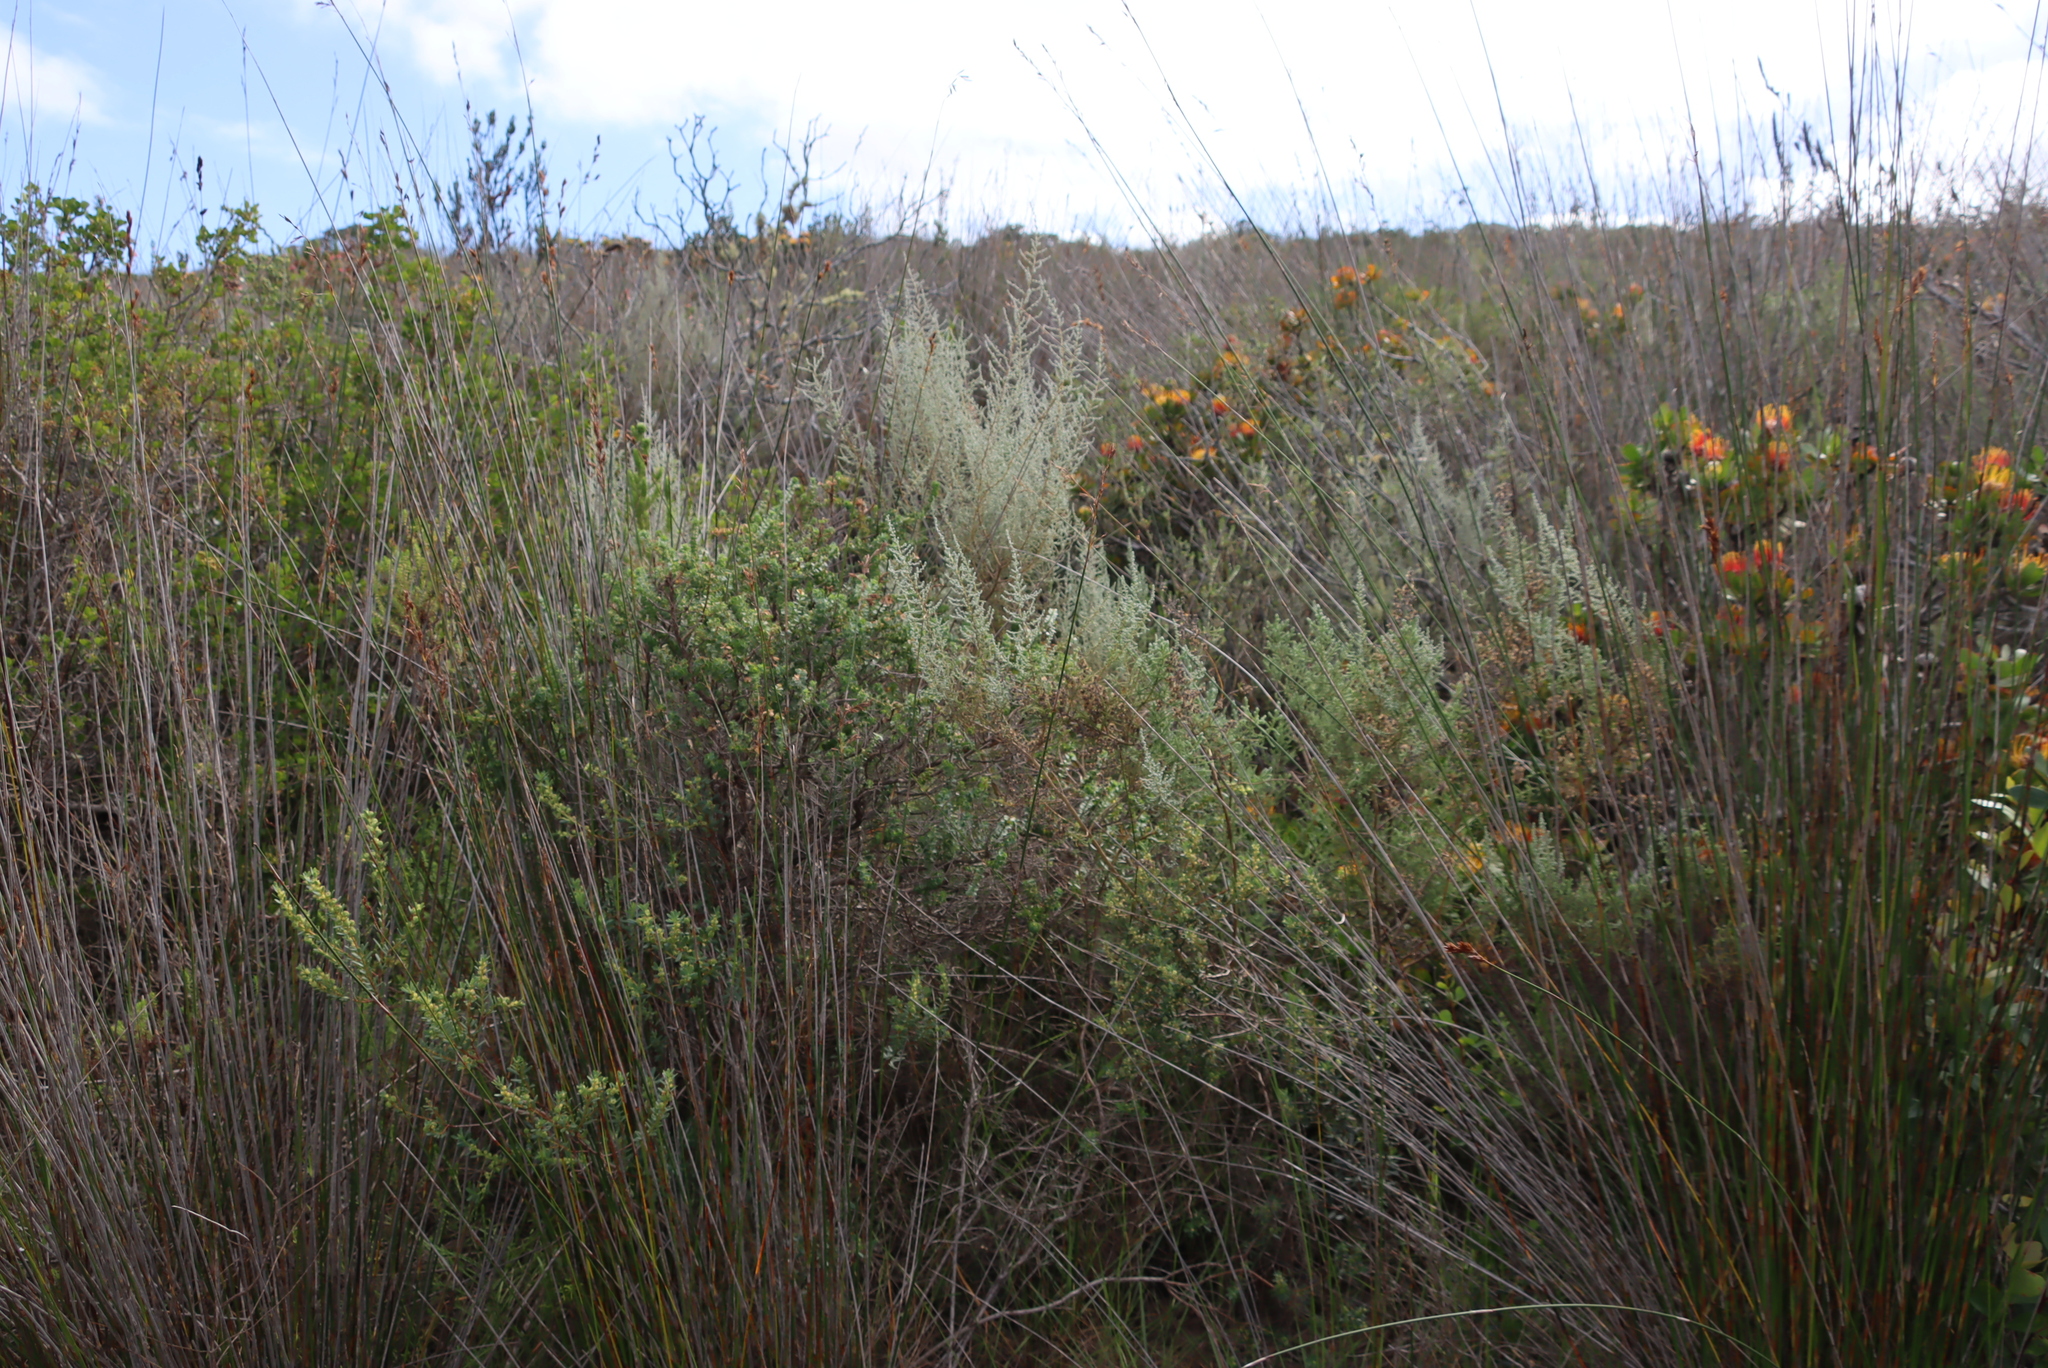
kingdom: Plantae
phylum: Tracheophyta
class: Magnoliopsida
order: Asterales
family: Asteraceae
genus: Seriphium
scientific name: Seriphium cinereum
